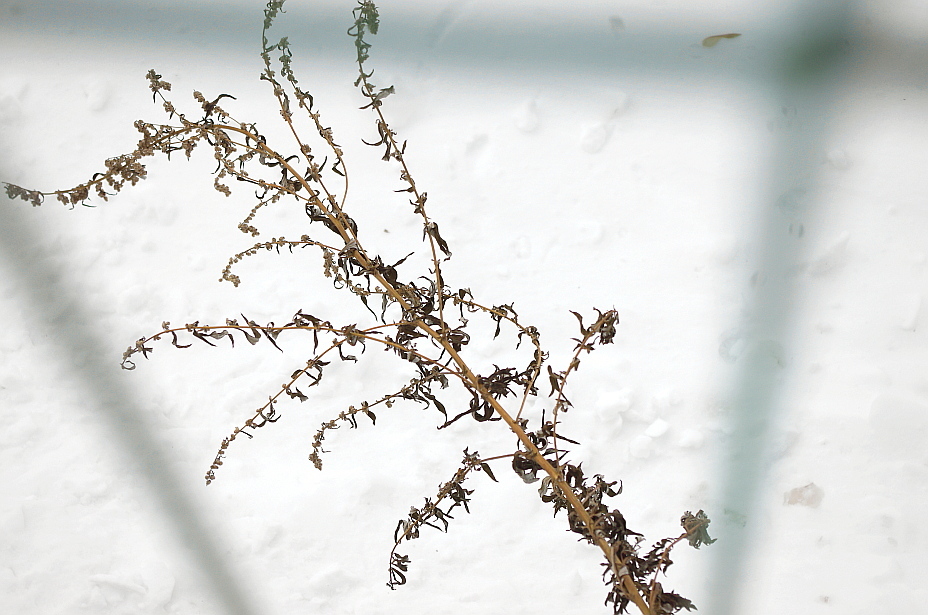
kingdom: Plantae
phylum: Tracheophyta
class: Magnoliopsida
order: Asterales
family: Asteraceae
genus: Artemisia
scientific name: Artemisia vulgaris
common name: Mugwort
